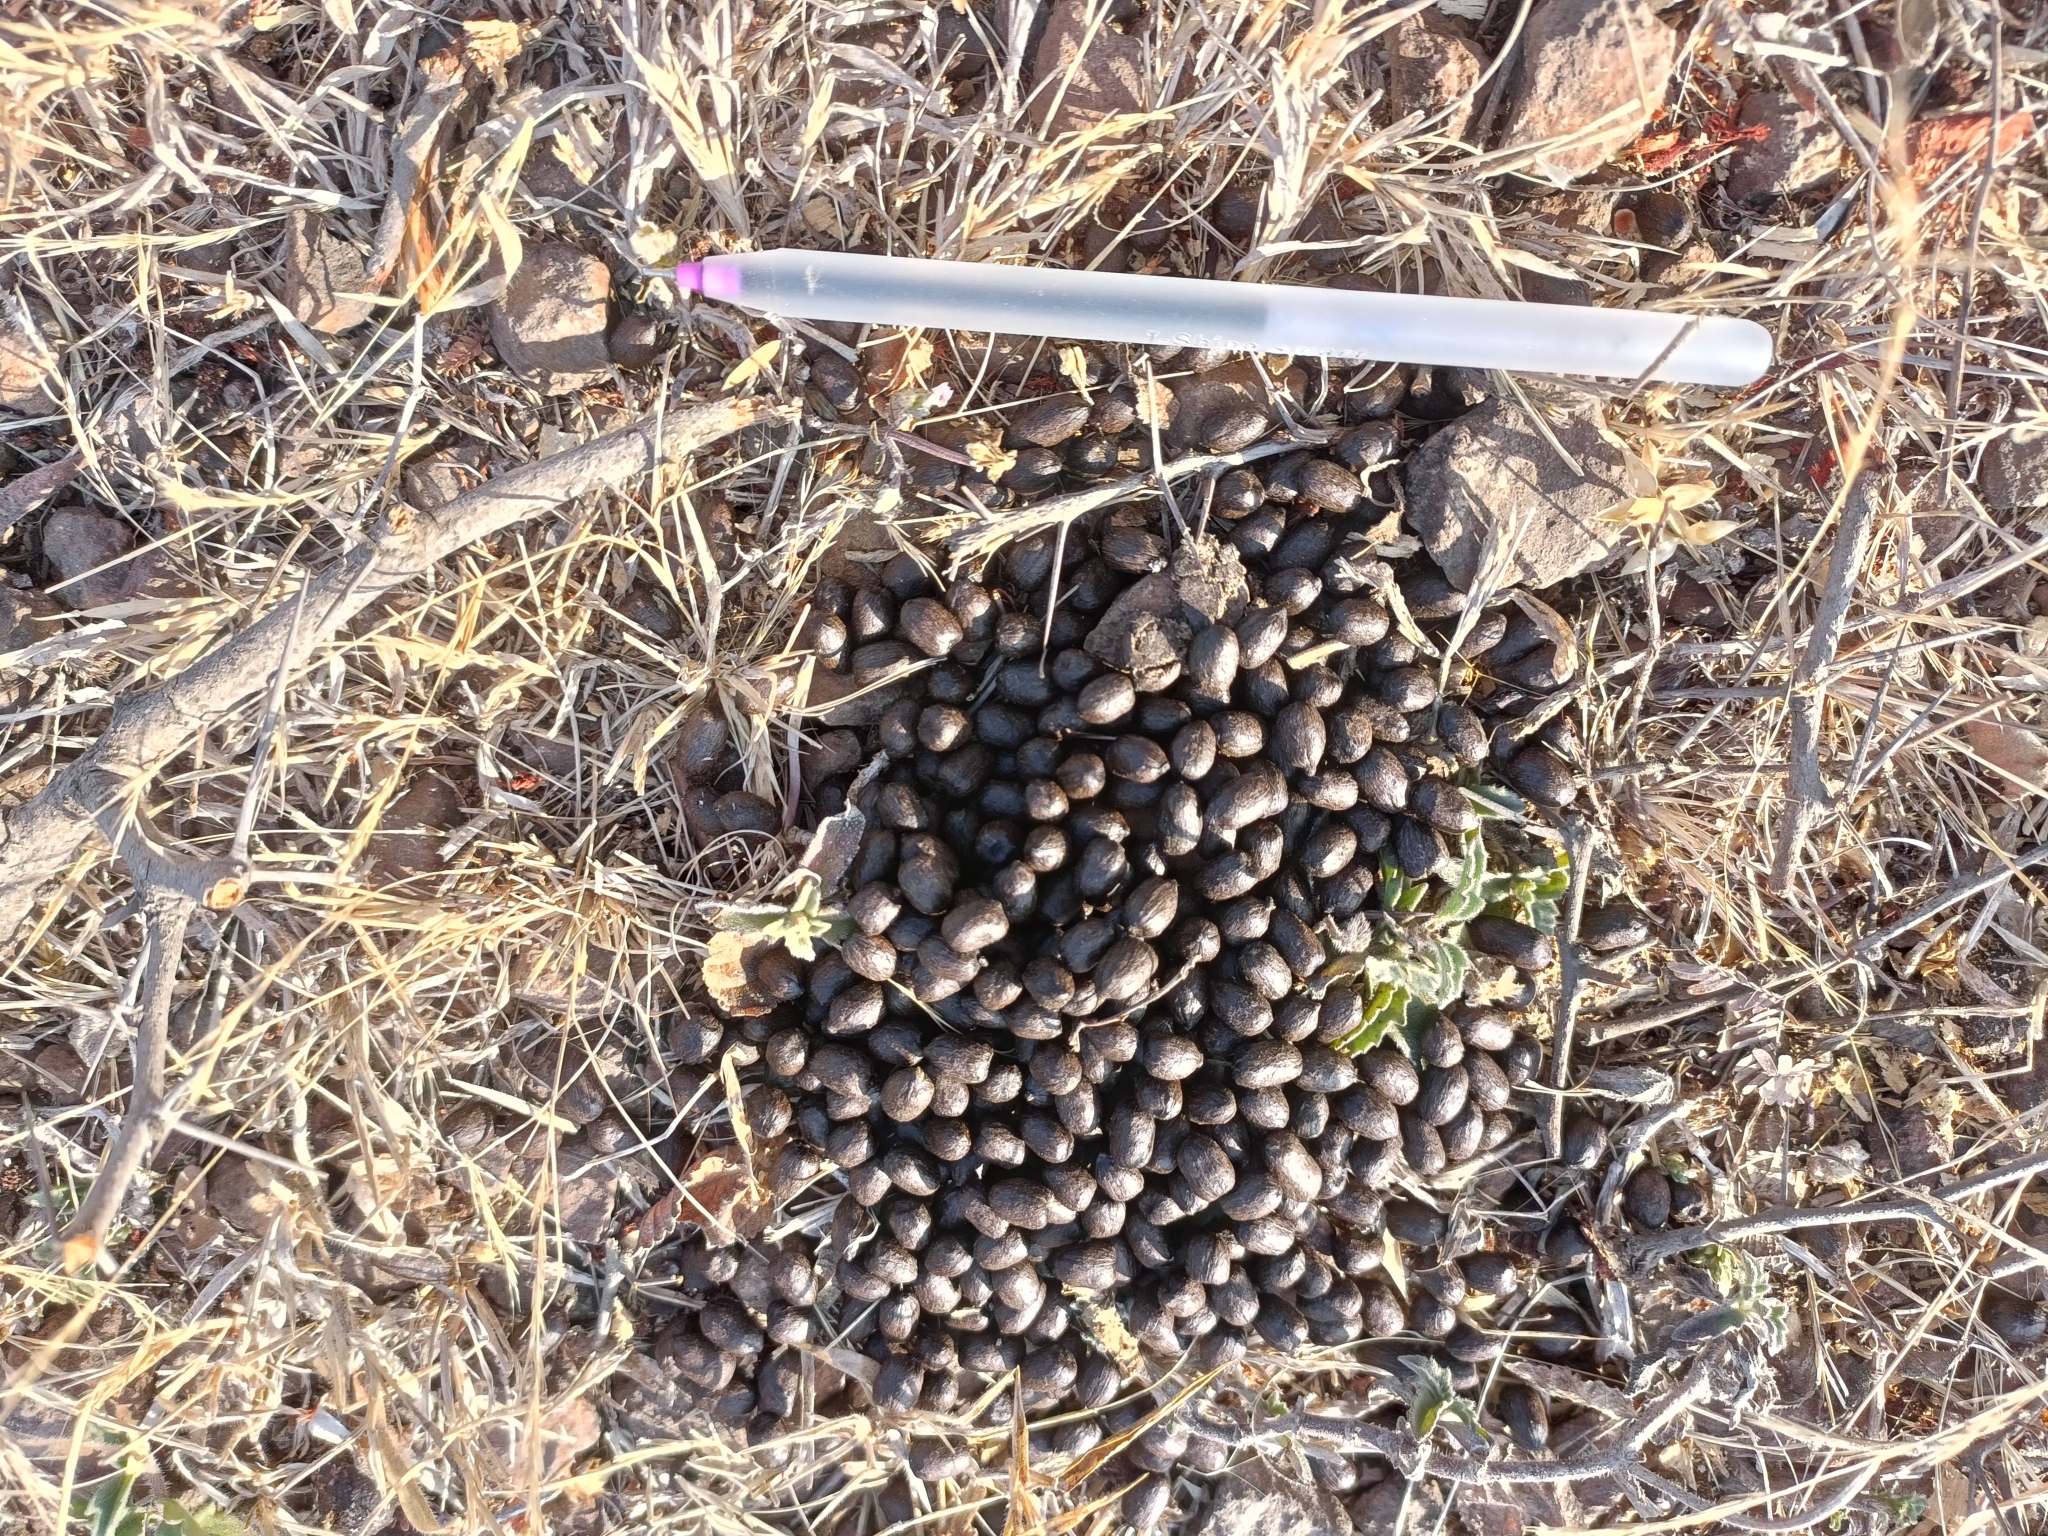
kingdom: Animalia
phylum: Chordata
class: Mammalia
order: Artiodactyla
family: Bovidae
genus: Gazella
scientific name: Gazella bennettii
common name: Indian gazelle
